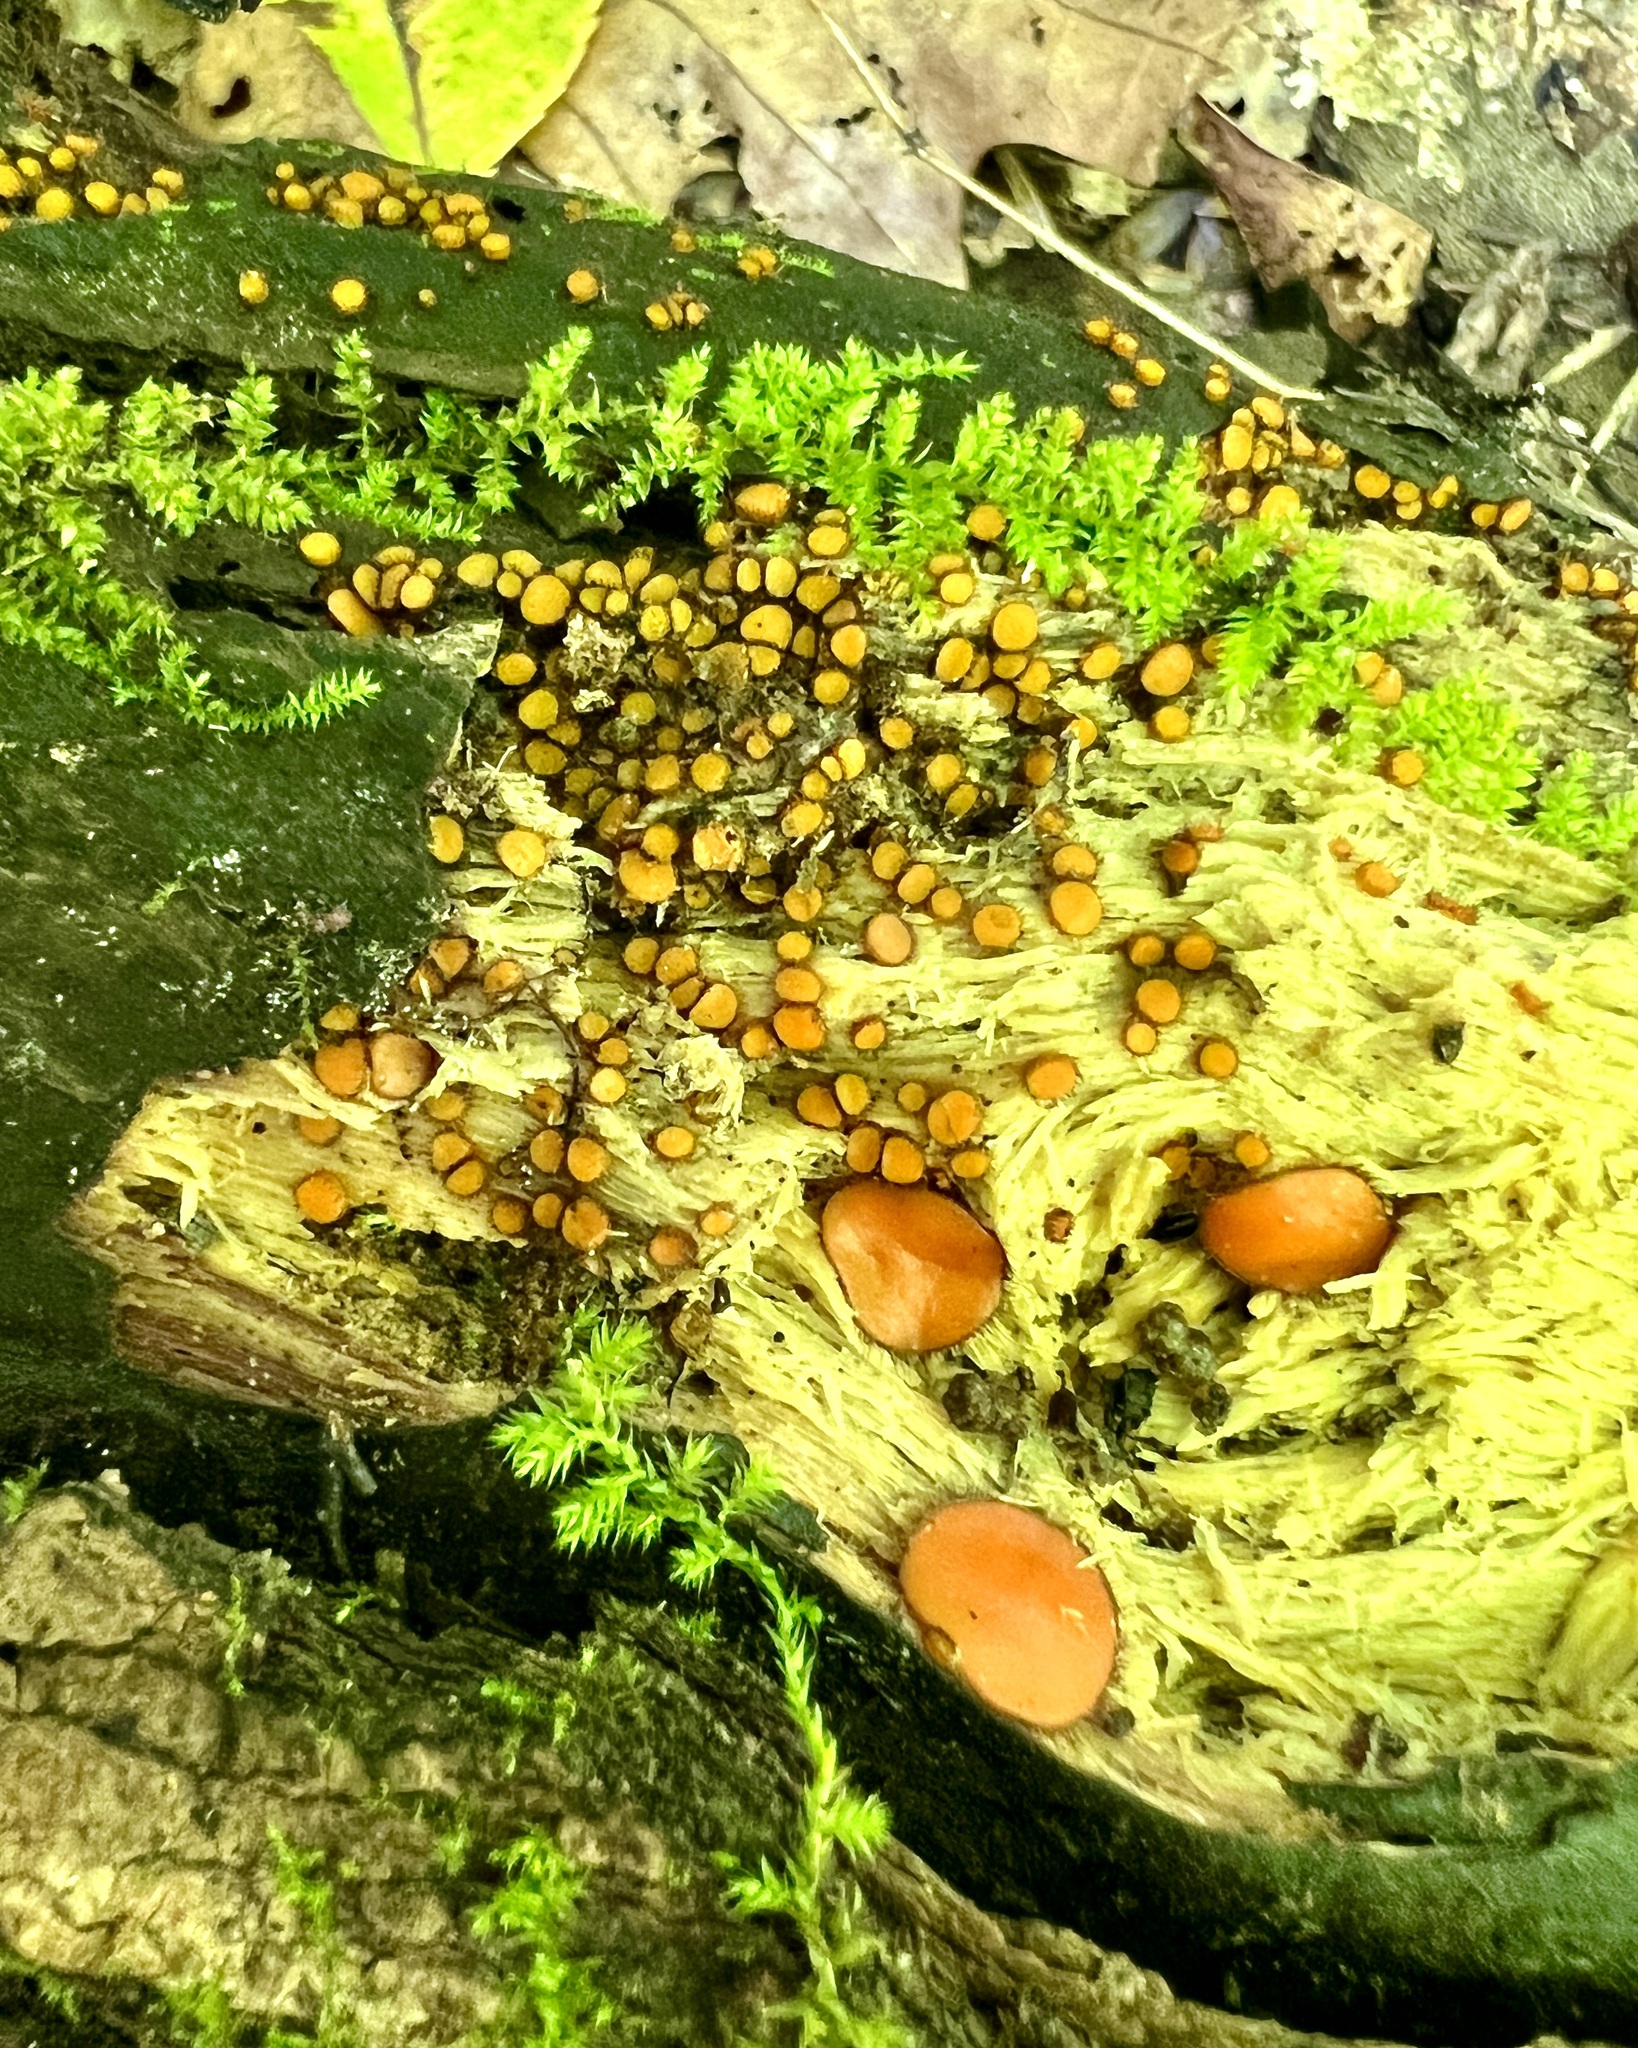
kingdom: Fungi
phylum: Ascomycota
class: Pezizomycetes
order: Pezizales
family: Pyronemataceae
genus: Scutellinia
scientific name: Scutellinia setosa
